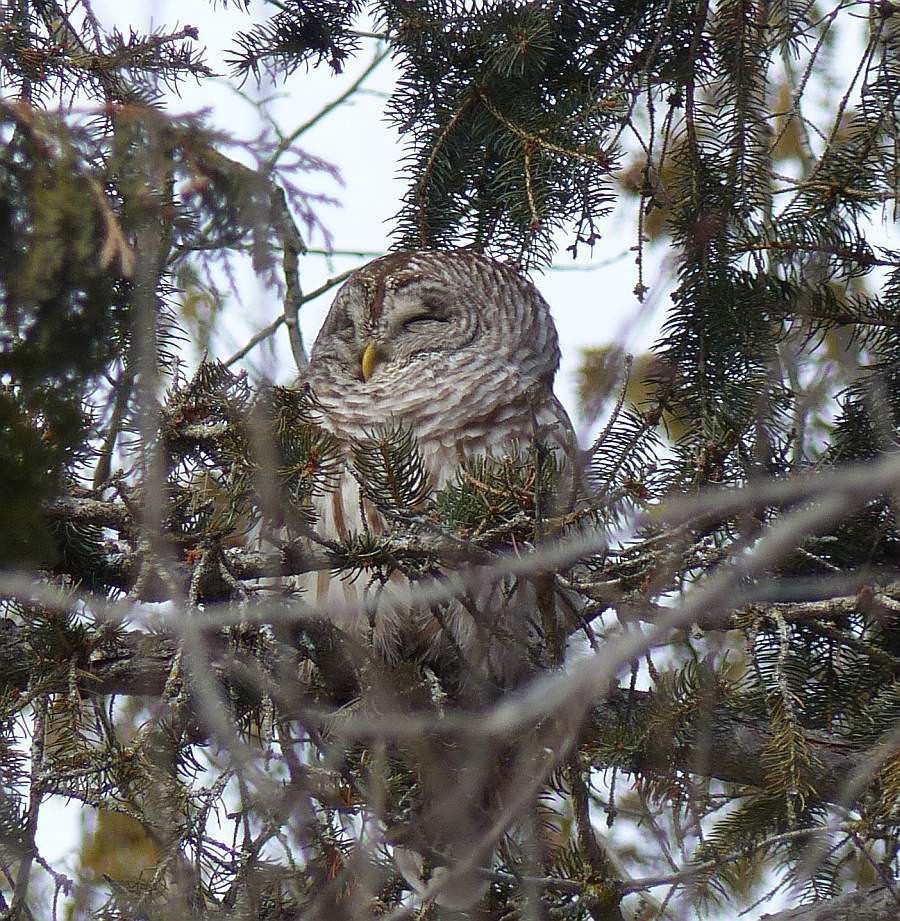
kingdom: Animalia
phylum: Chordata
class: Aves
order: Strigiformes
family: Strigidae
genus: Strix
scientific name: Strix varia
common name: Barred owl
